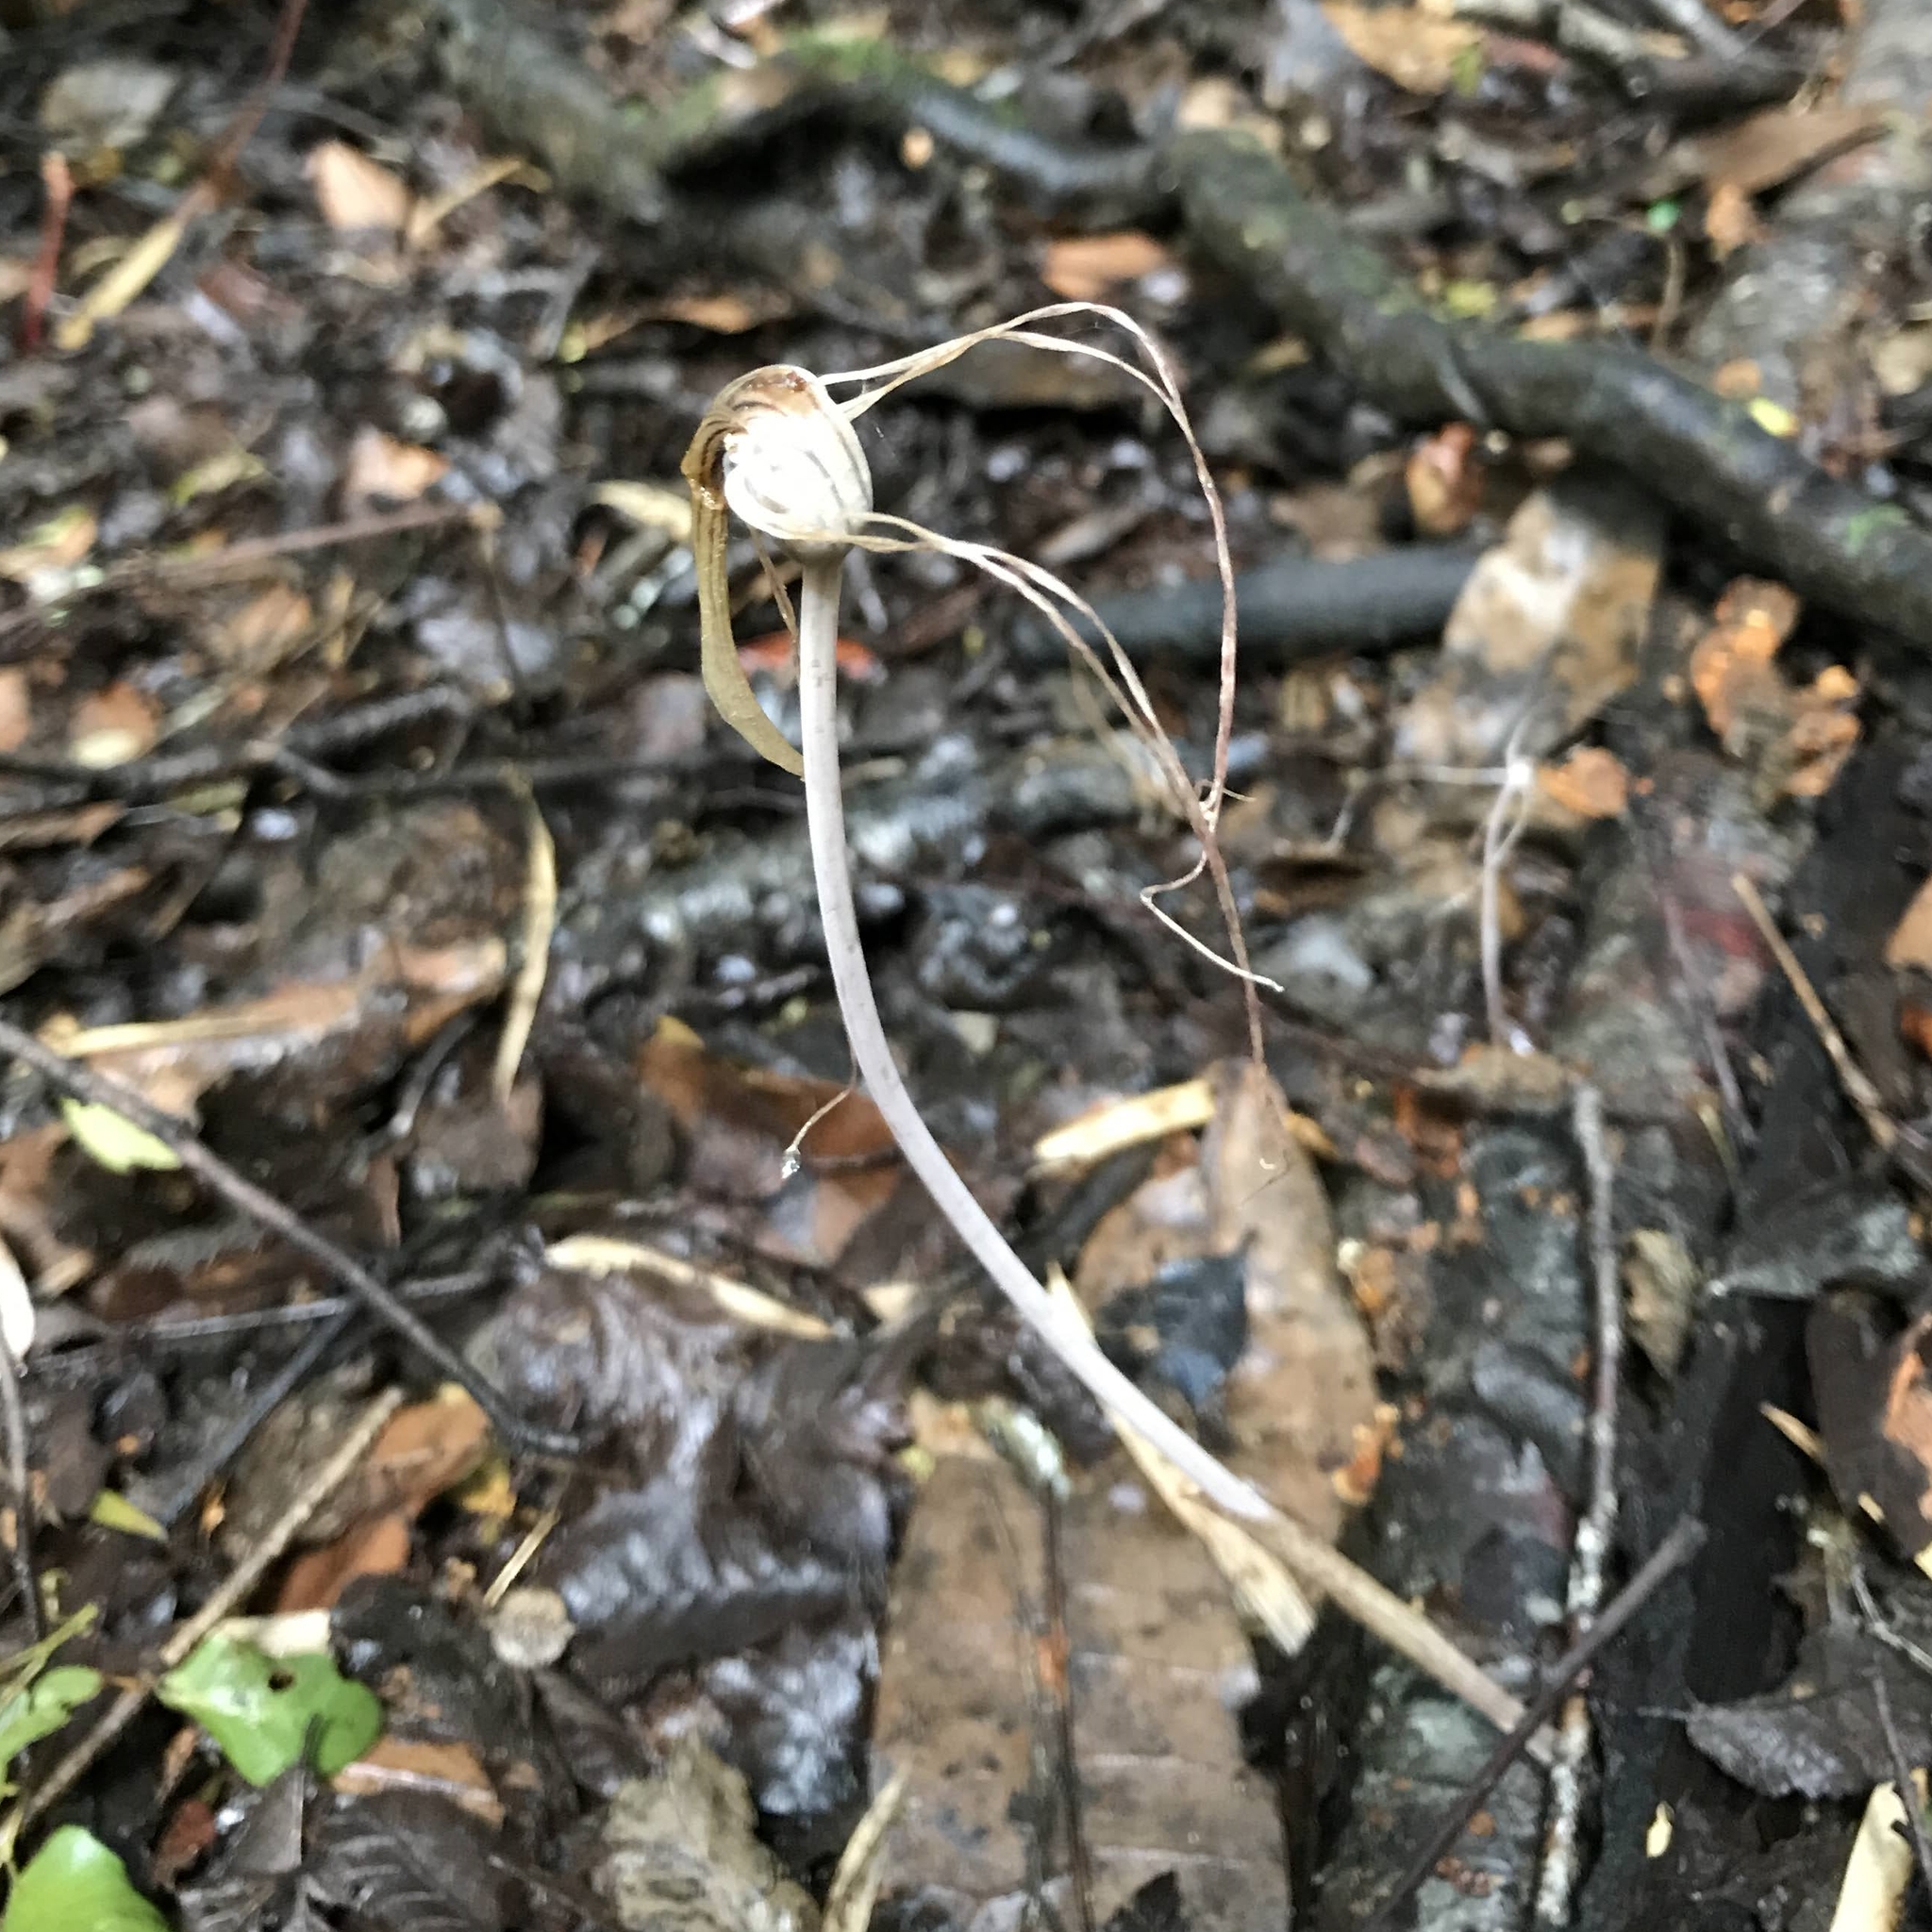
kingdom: Plantae
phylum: Tracheophyta
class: Liliopsida
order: Liliales
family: Corsiaceae
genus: Arachnitis
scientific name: Arachnitis uniflora
